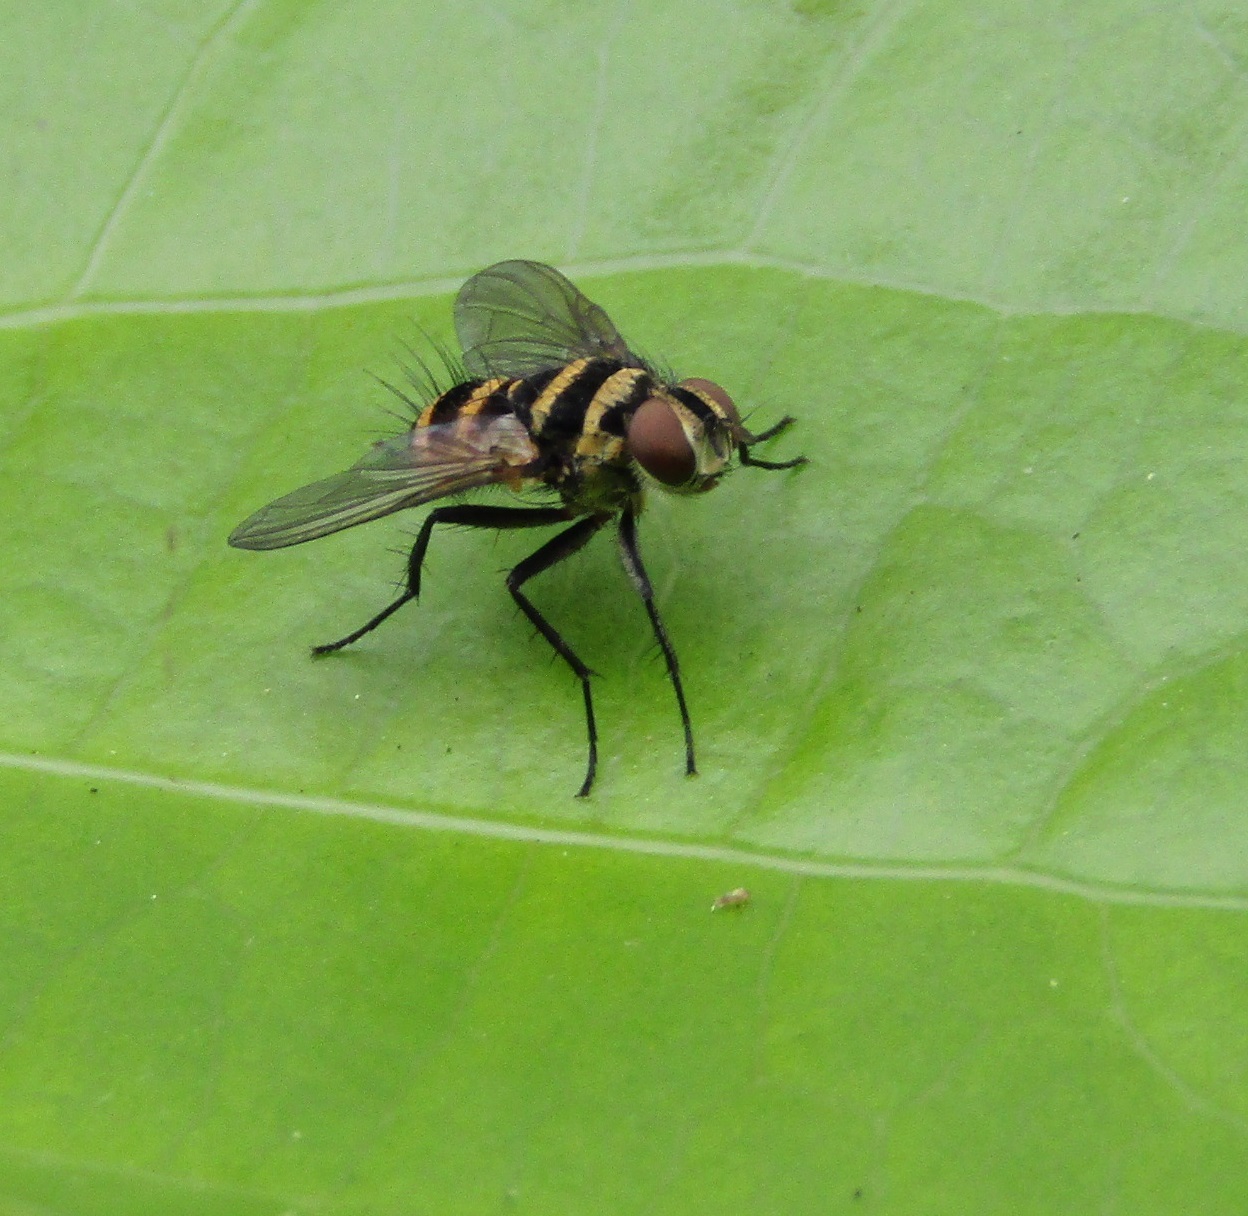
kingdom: Animalia
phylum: Arthropoda
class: Insecta
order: Diptera
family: Tachinidae
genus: Trigonospila
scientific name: Trigonospila brevifacies
